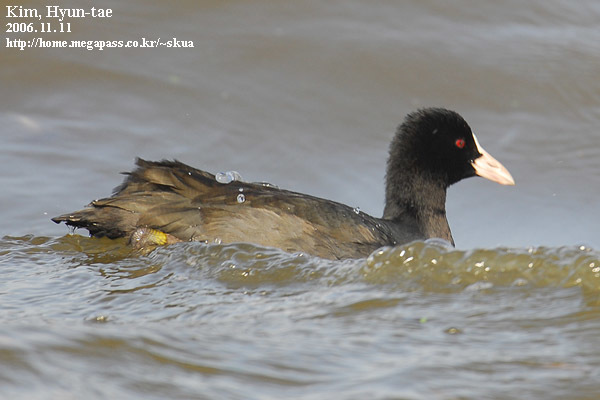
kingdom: Animalia
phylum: Chordata
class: Aves
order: Gruiformes
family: Rallidae
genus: Fulica
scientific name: Fulica atra
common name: Eurasian coot
